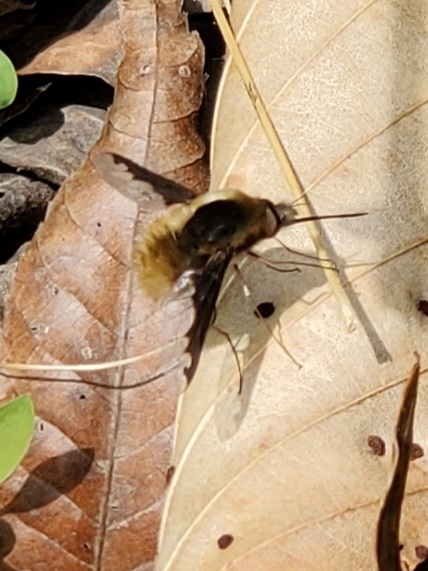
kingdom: Animalia
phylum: Arthropoda
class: Insecta
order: Diptera
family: Bombyliidae
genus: Bombylius
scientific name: Bombylius major
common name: Bee fly
